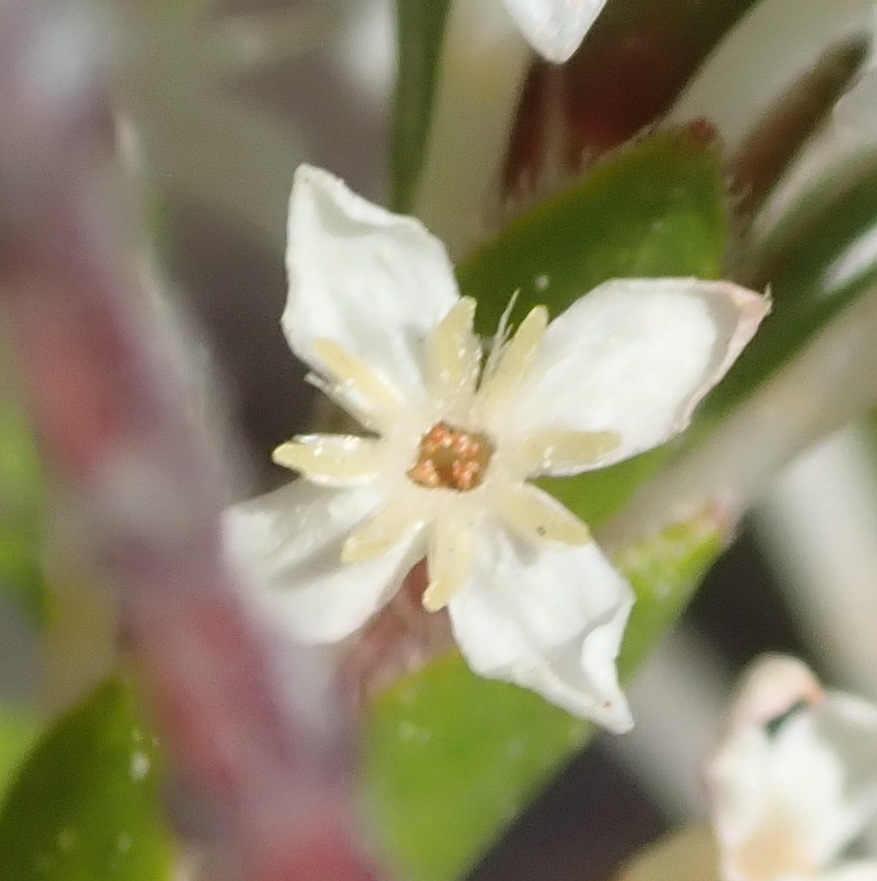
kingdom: Plantae
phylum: Tracheophyta
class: Magnoliopsida
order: Malvales
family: Thymelaeaceae
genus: Struthiola
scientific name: Struthiola hirsuta
